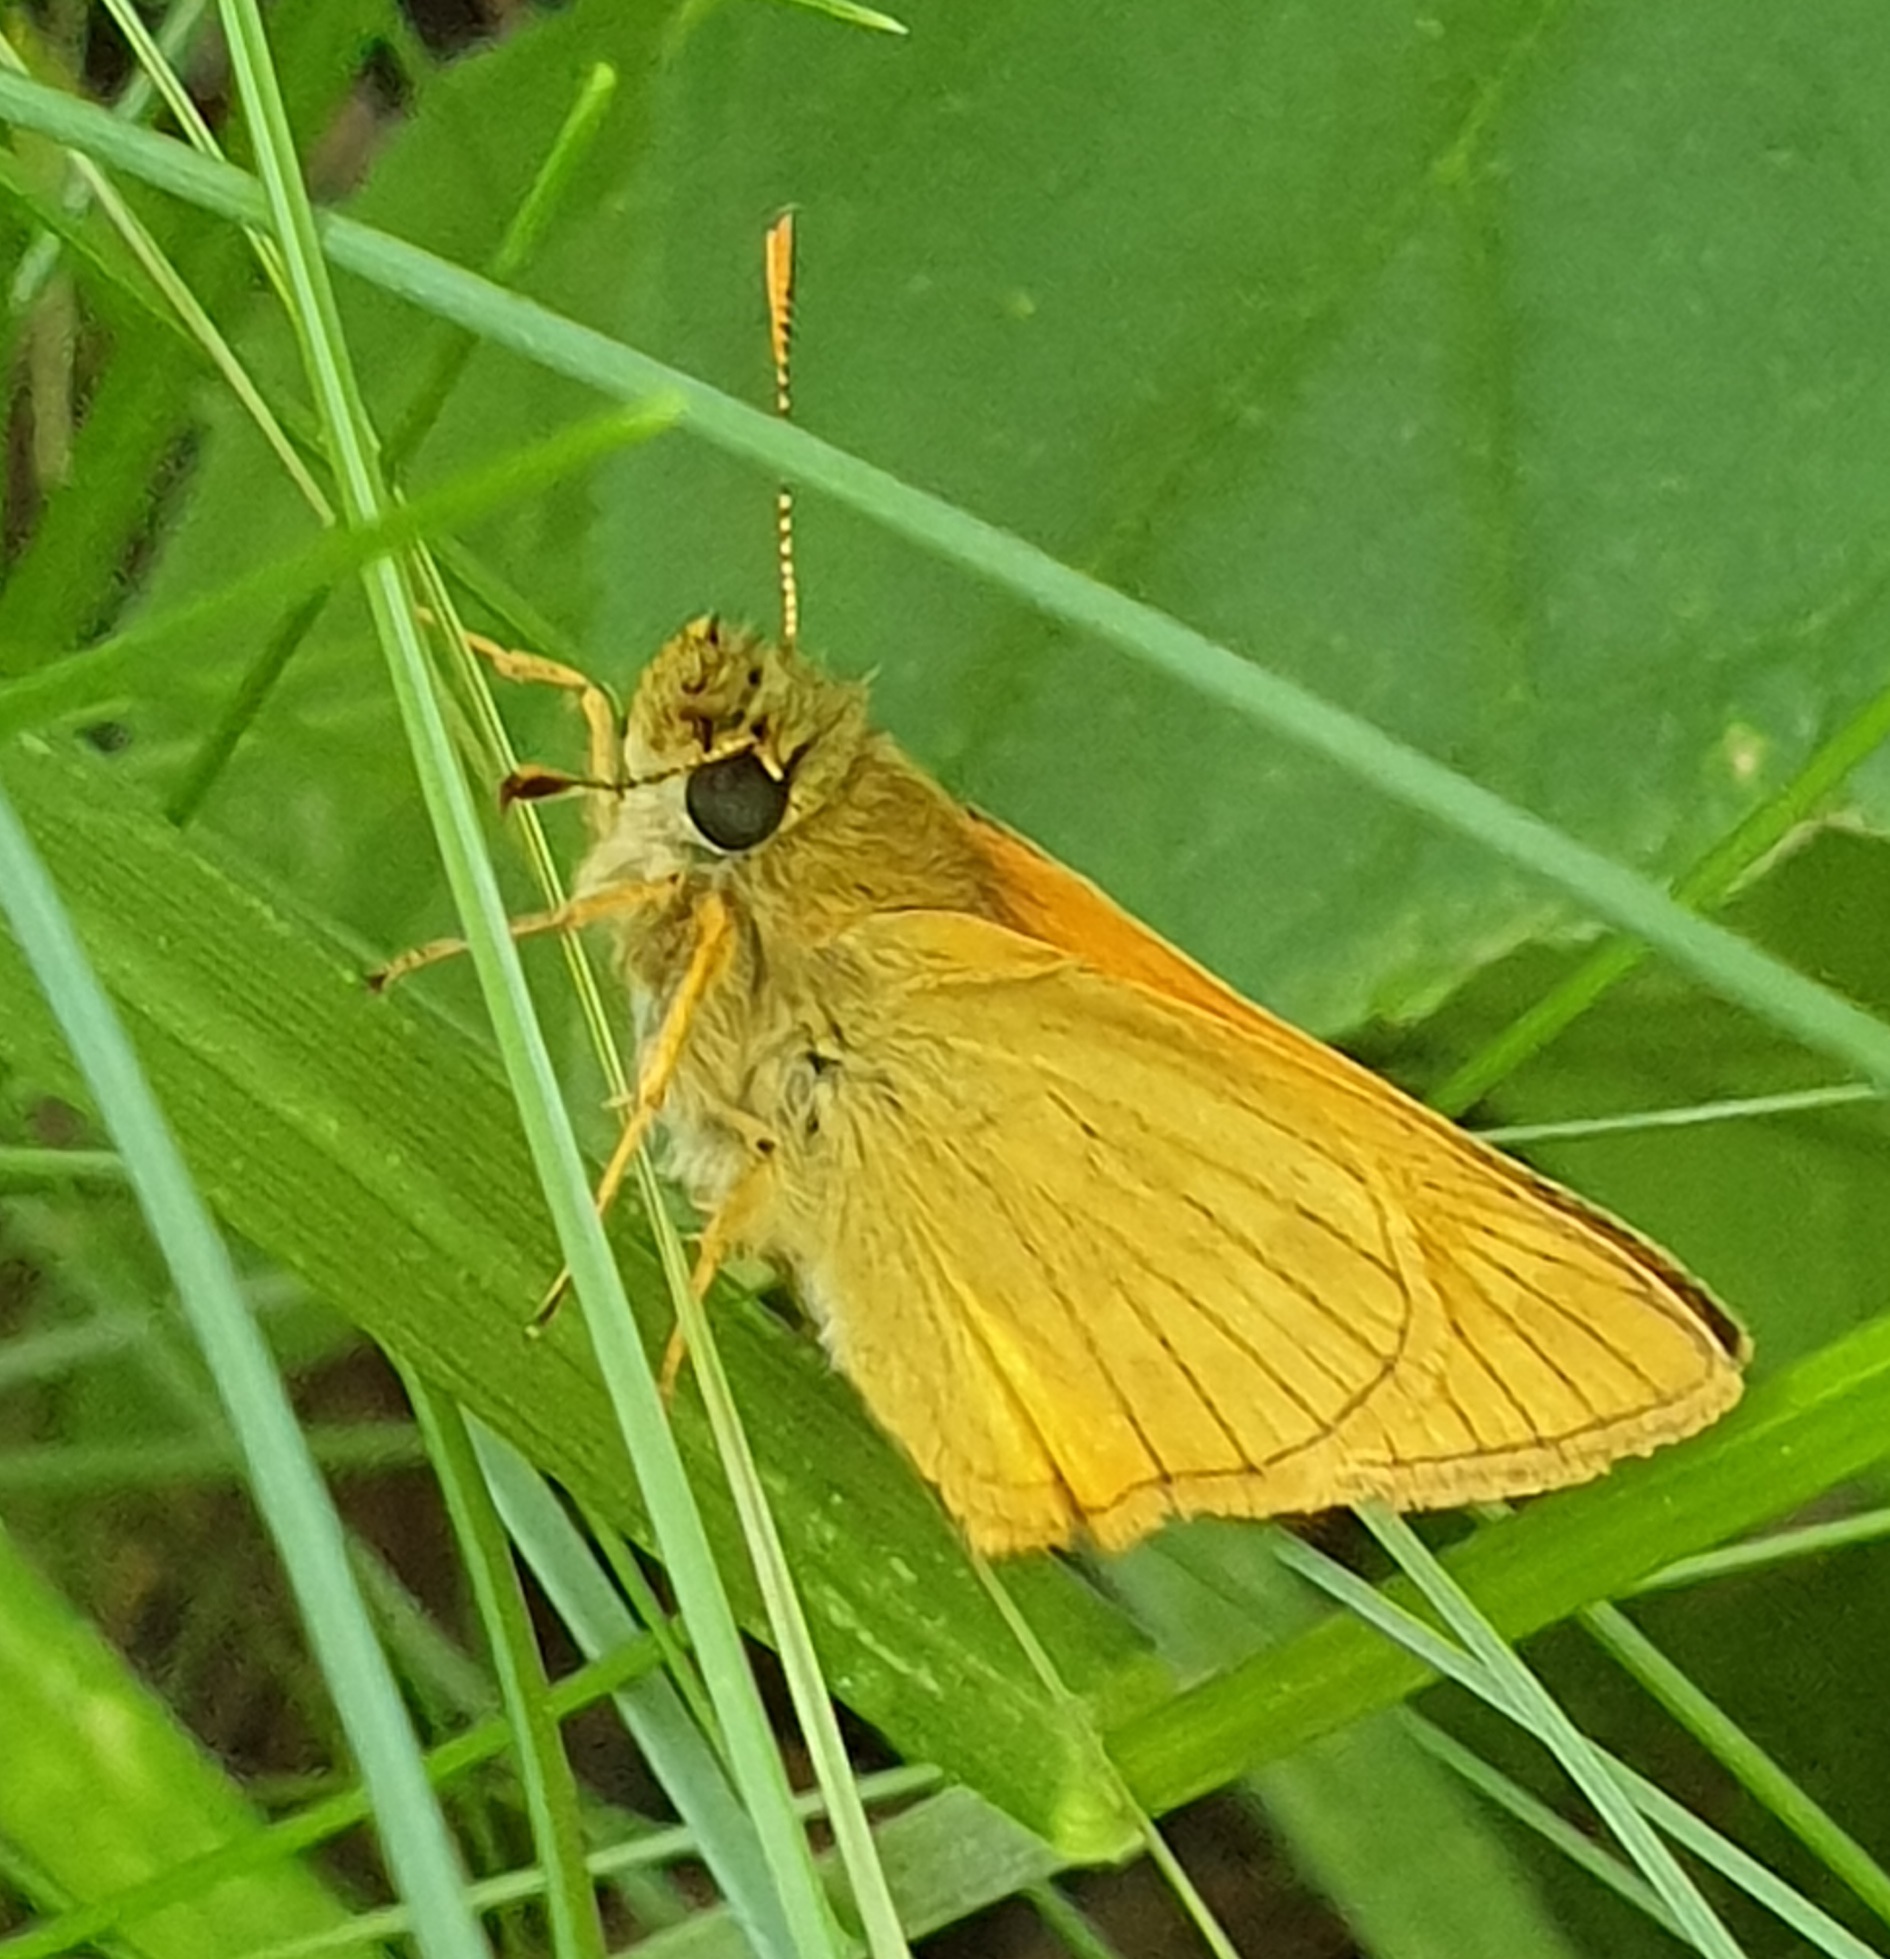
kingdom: Animalia
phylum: Arthropoda
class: Insecta
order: Lepidoptera
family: Hesperiidae
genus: Ochlodes
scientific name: Ochlodes venata
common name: Large skipper
